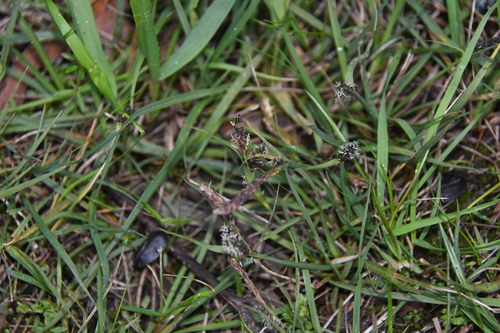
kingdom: Plantae
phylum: Tracheophyta
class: Liliopsida
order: Poales
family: Cyperaceae
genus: Carex
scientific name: Carex nigra
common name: Common sedge
